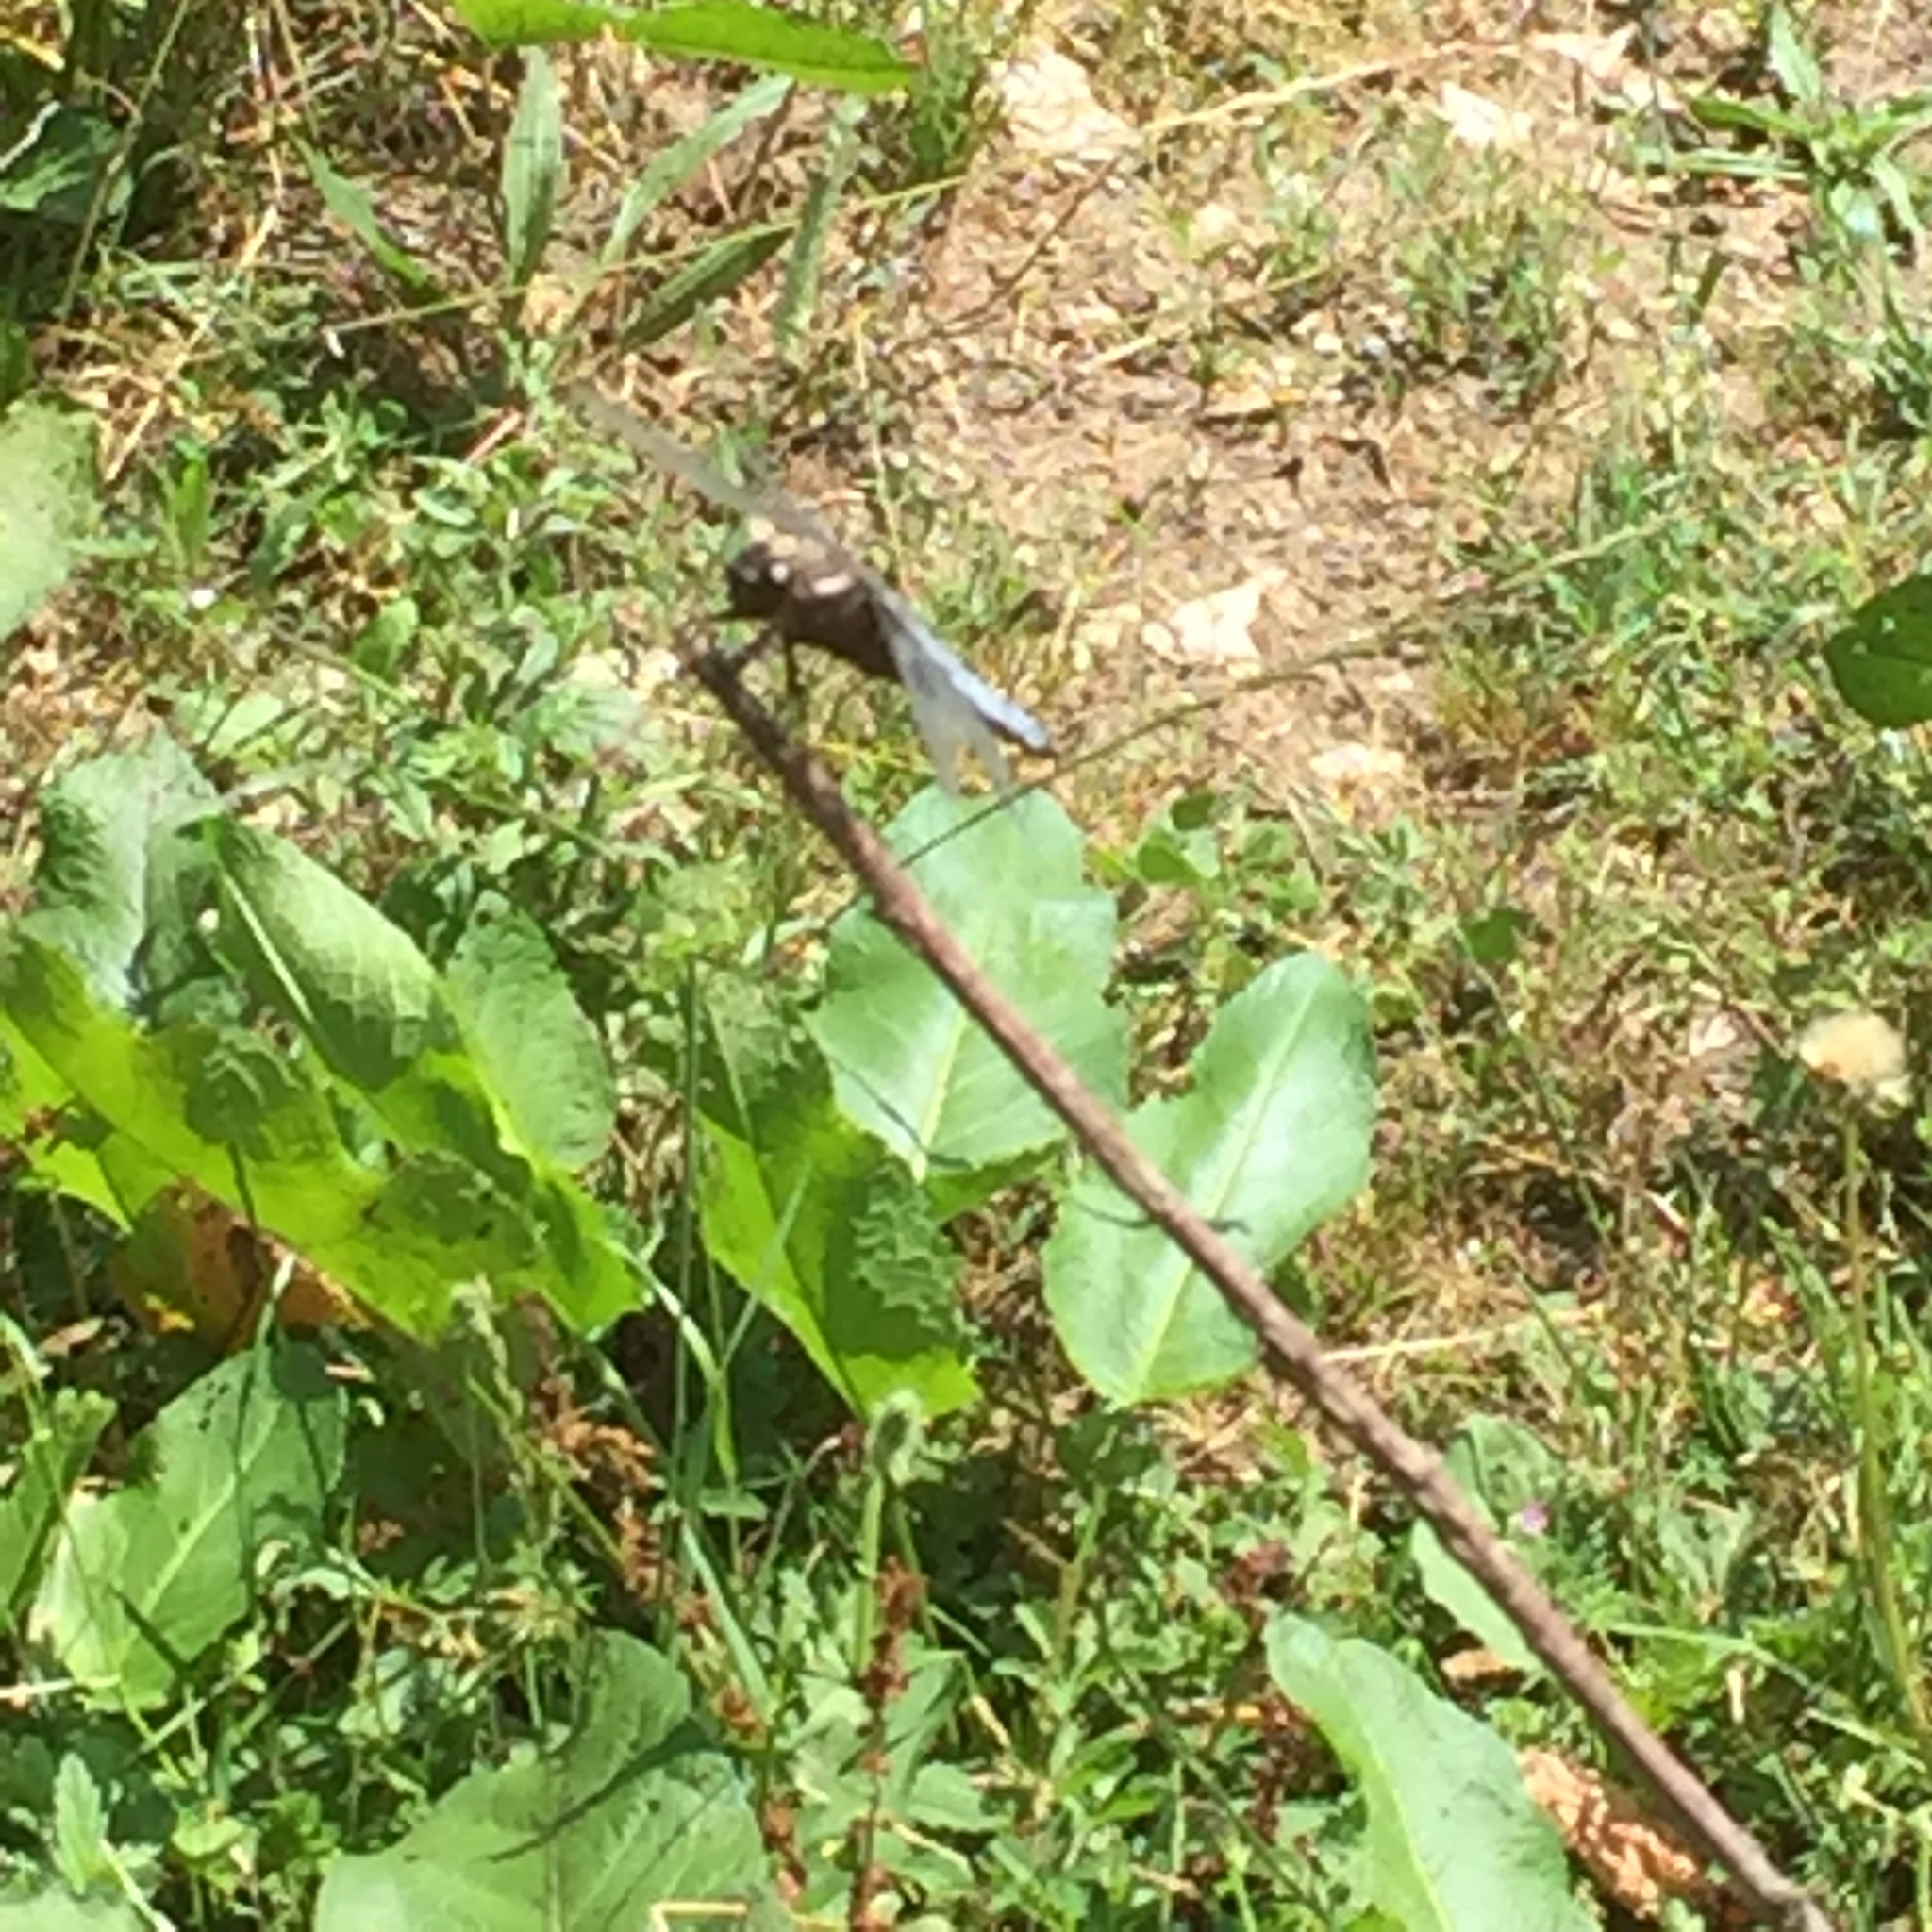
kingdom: Animalia
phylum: Arthropoda
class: Insecta
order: Odonata
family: Libellulidae
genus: Libellula
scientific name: Libellula depressa
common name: Broad-bodied chaser
